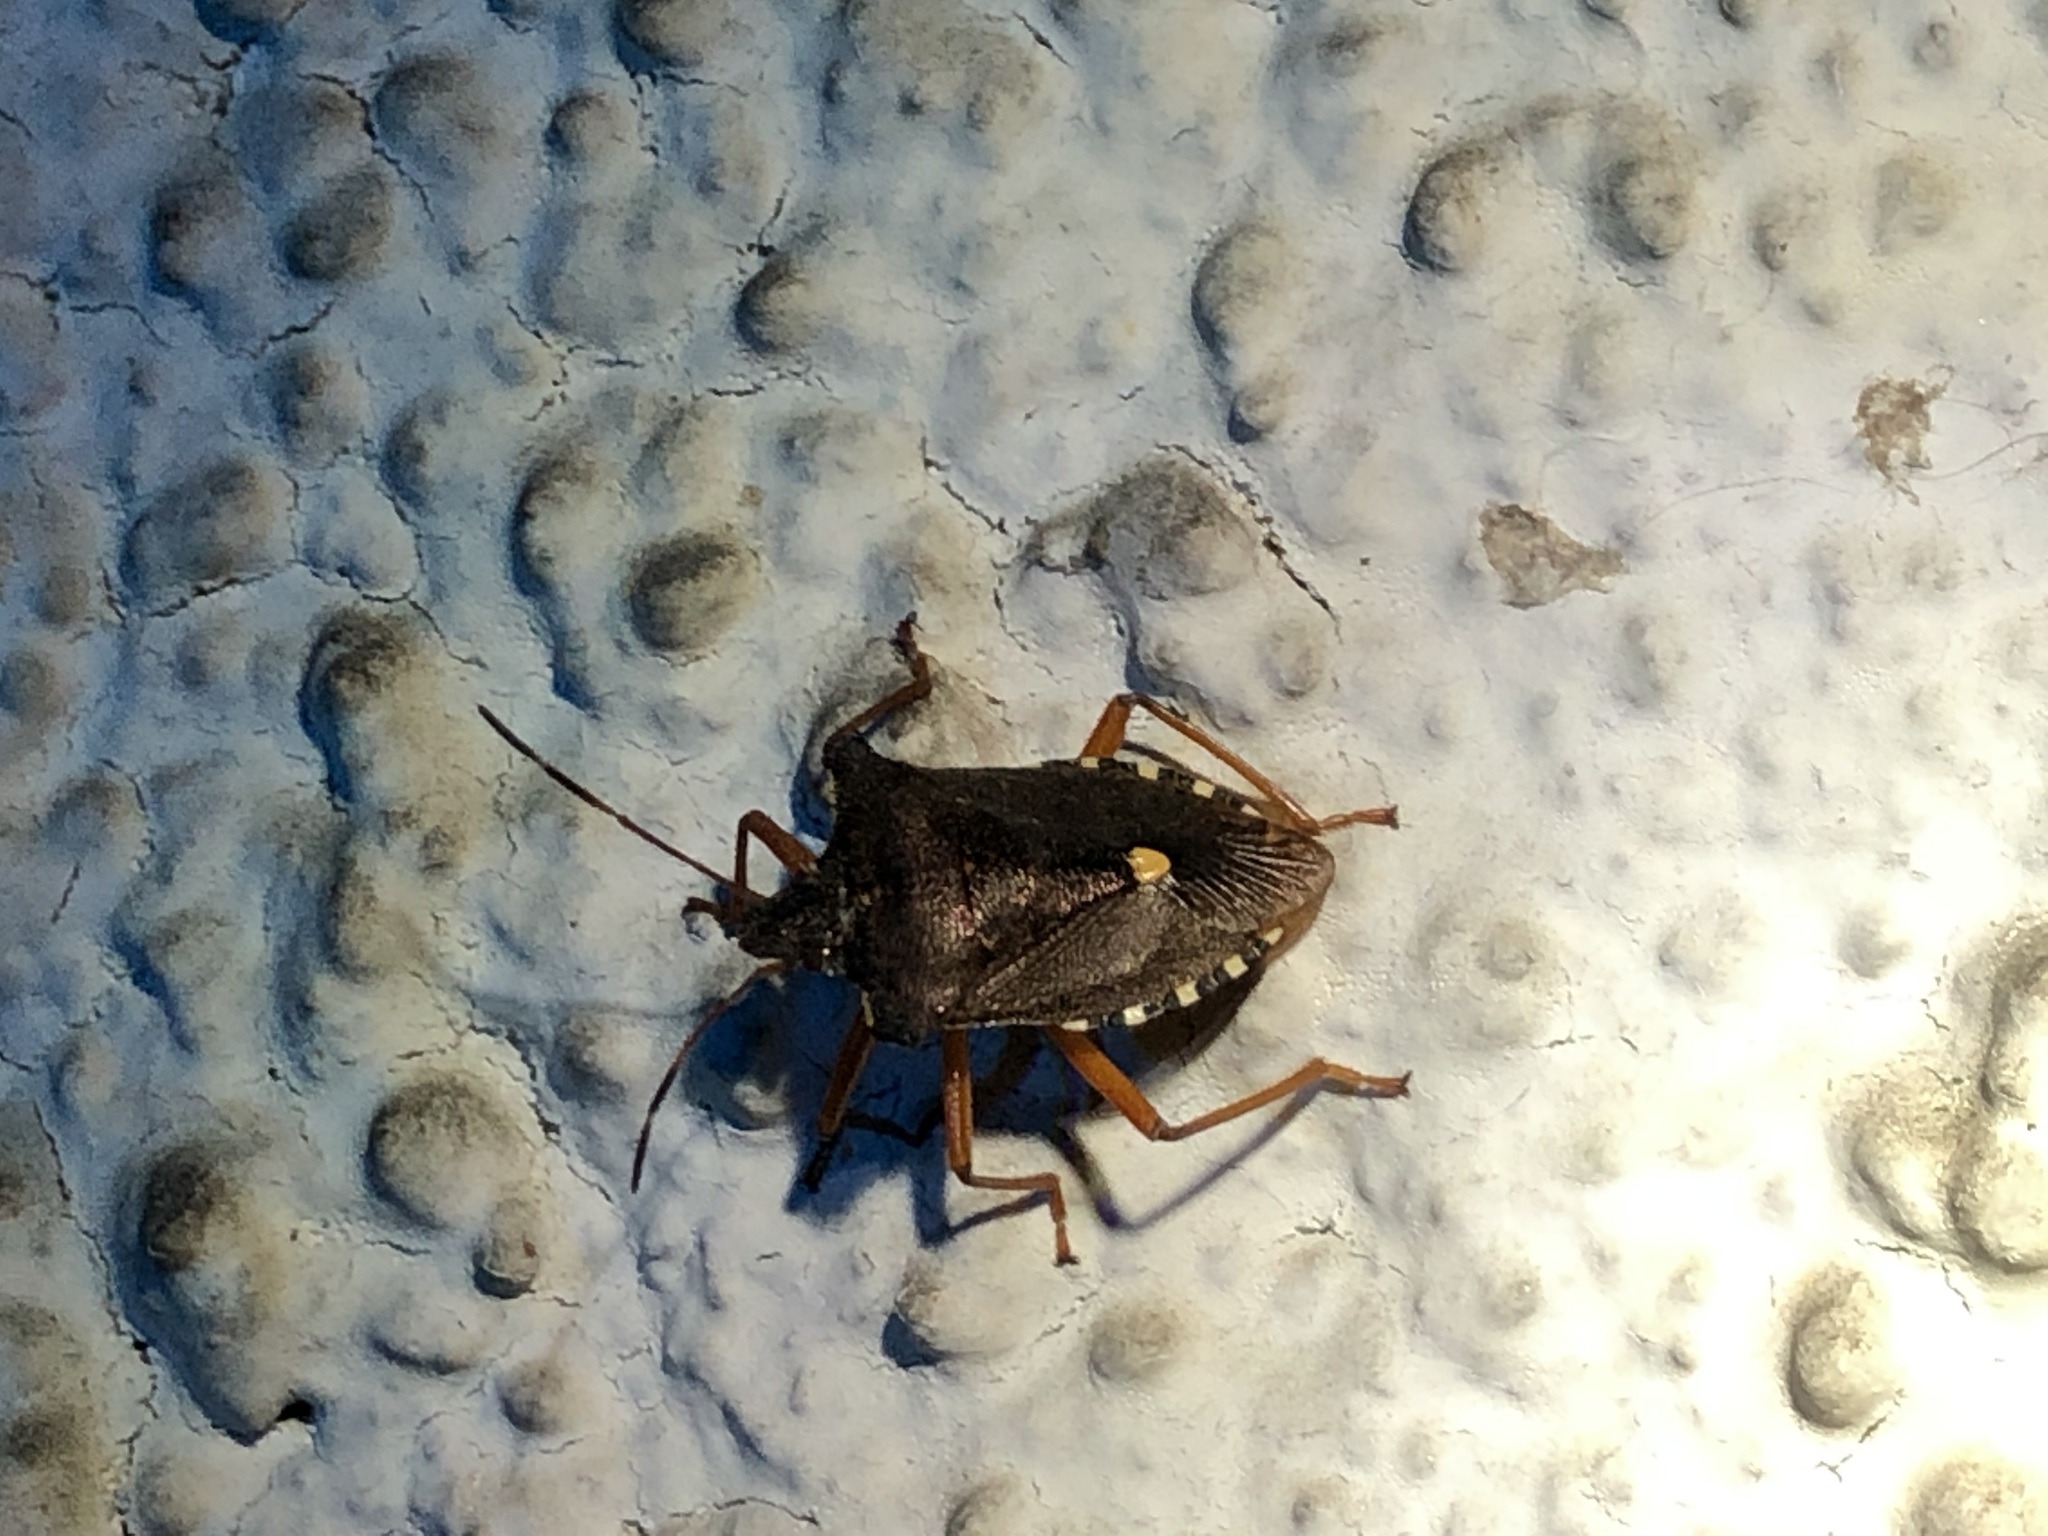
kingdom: Animalia
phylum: Arthropoda
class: Insecta
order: Hemiptera
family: Pentatomidae
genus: Pentatoma
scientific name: Pentatoma rufipes
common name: Forest bug
